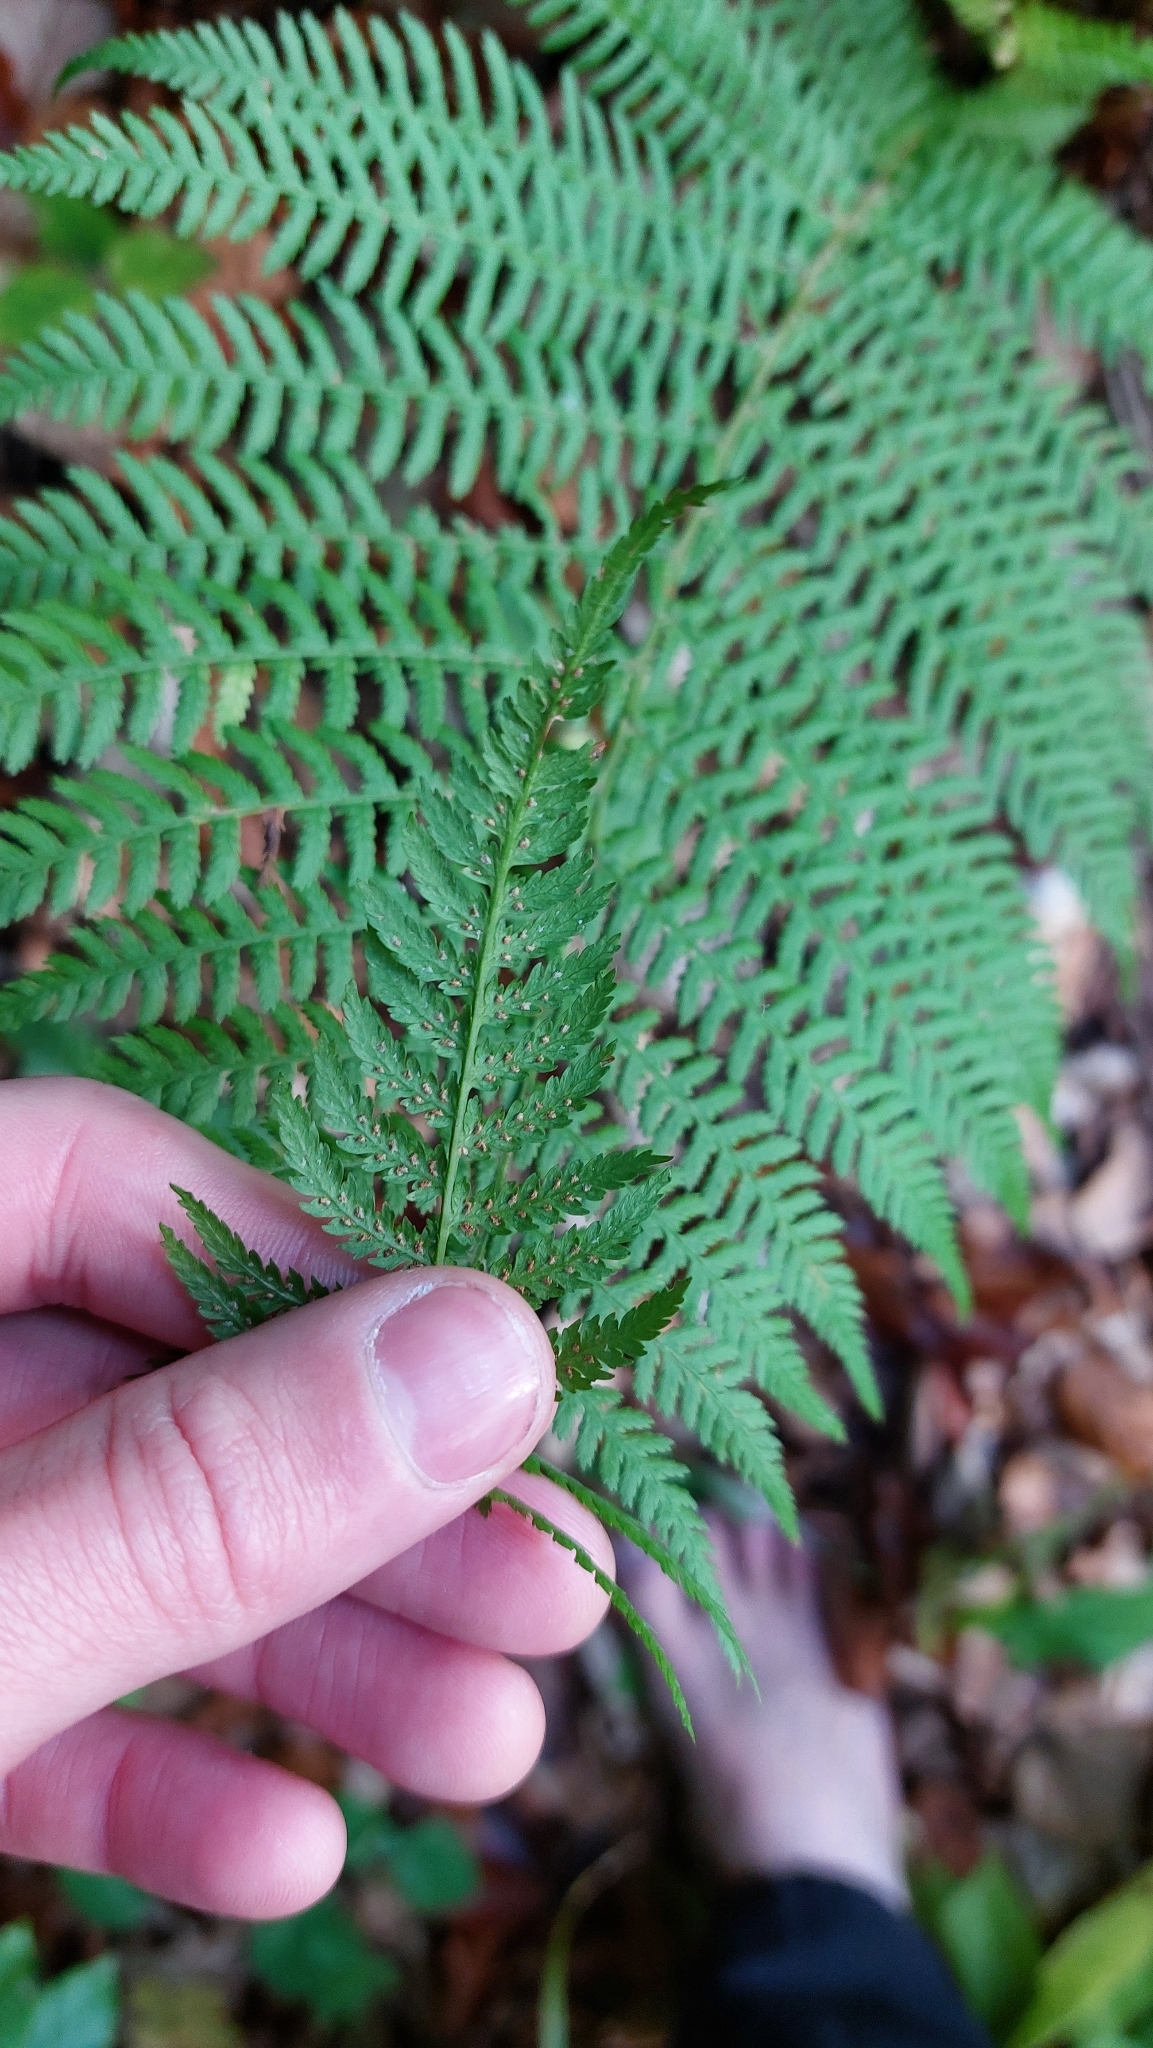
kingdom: Plantae
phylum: Tracheophyta
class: Polypodiopsida
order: Polypodiales
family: Athyriaceae
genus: Athyrium
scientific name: Athyrium filix-femina
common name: Lady fern
